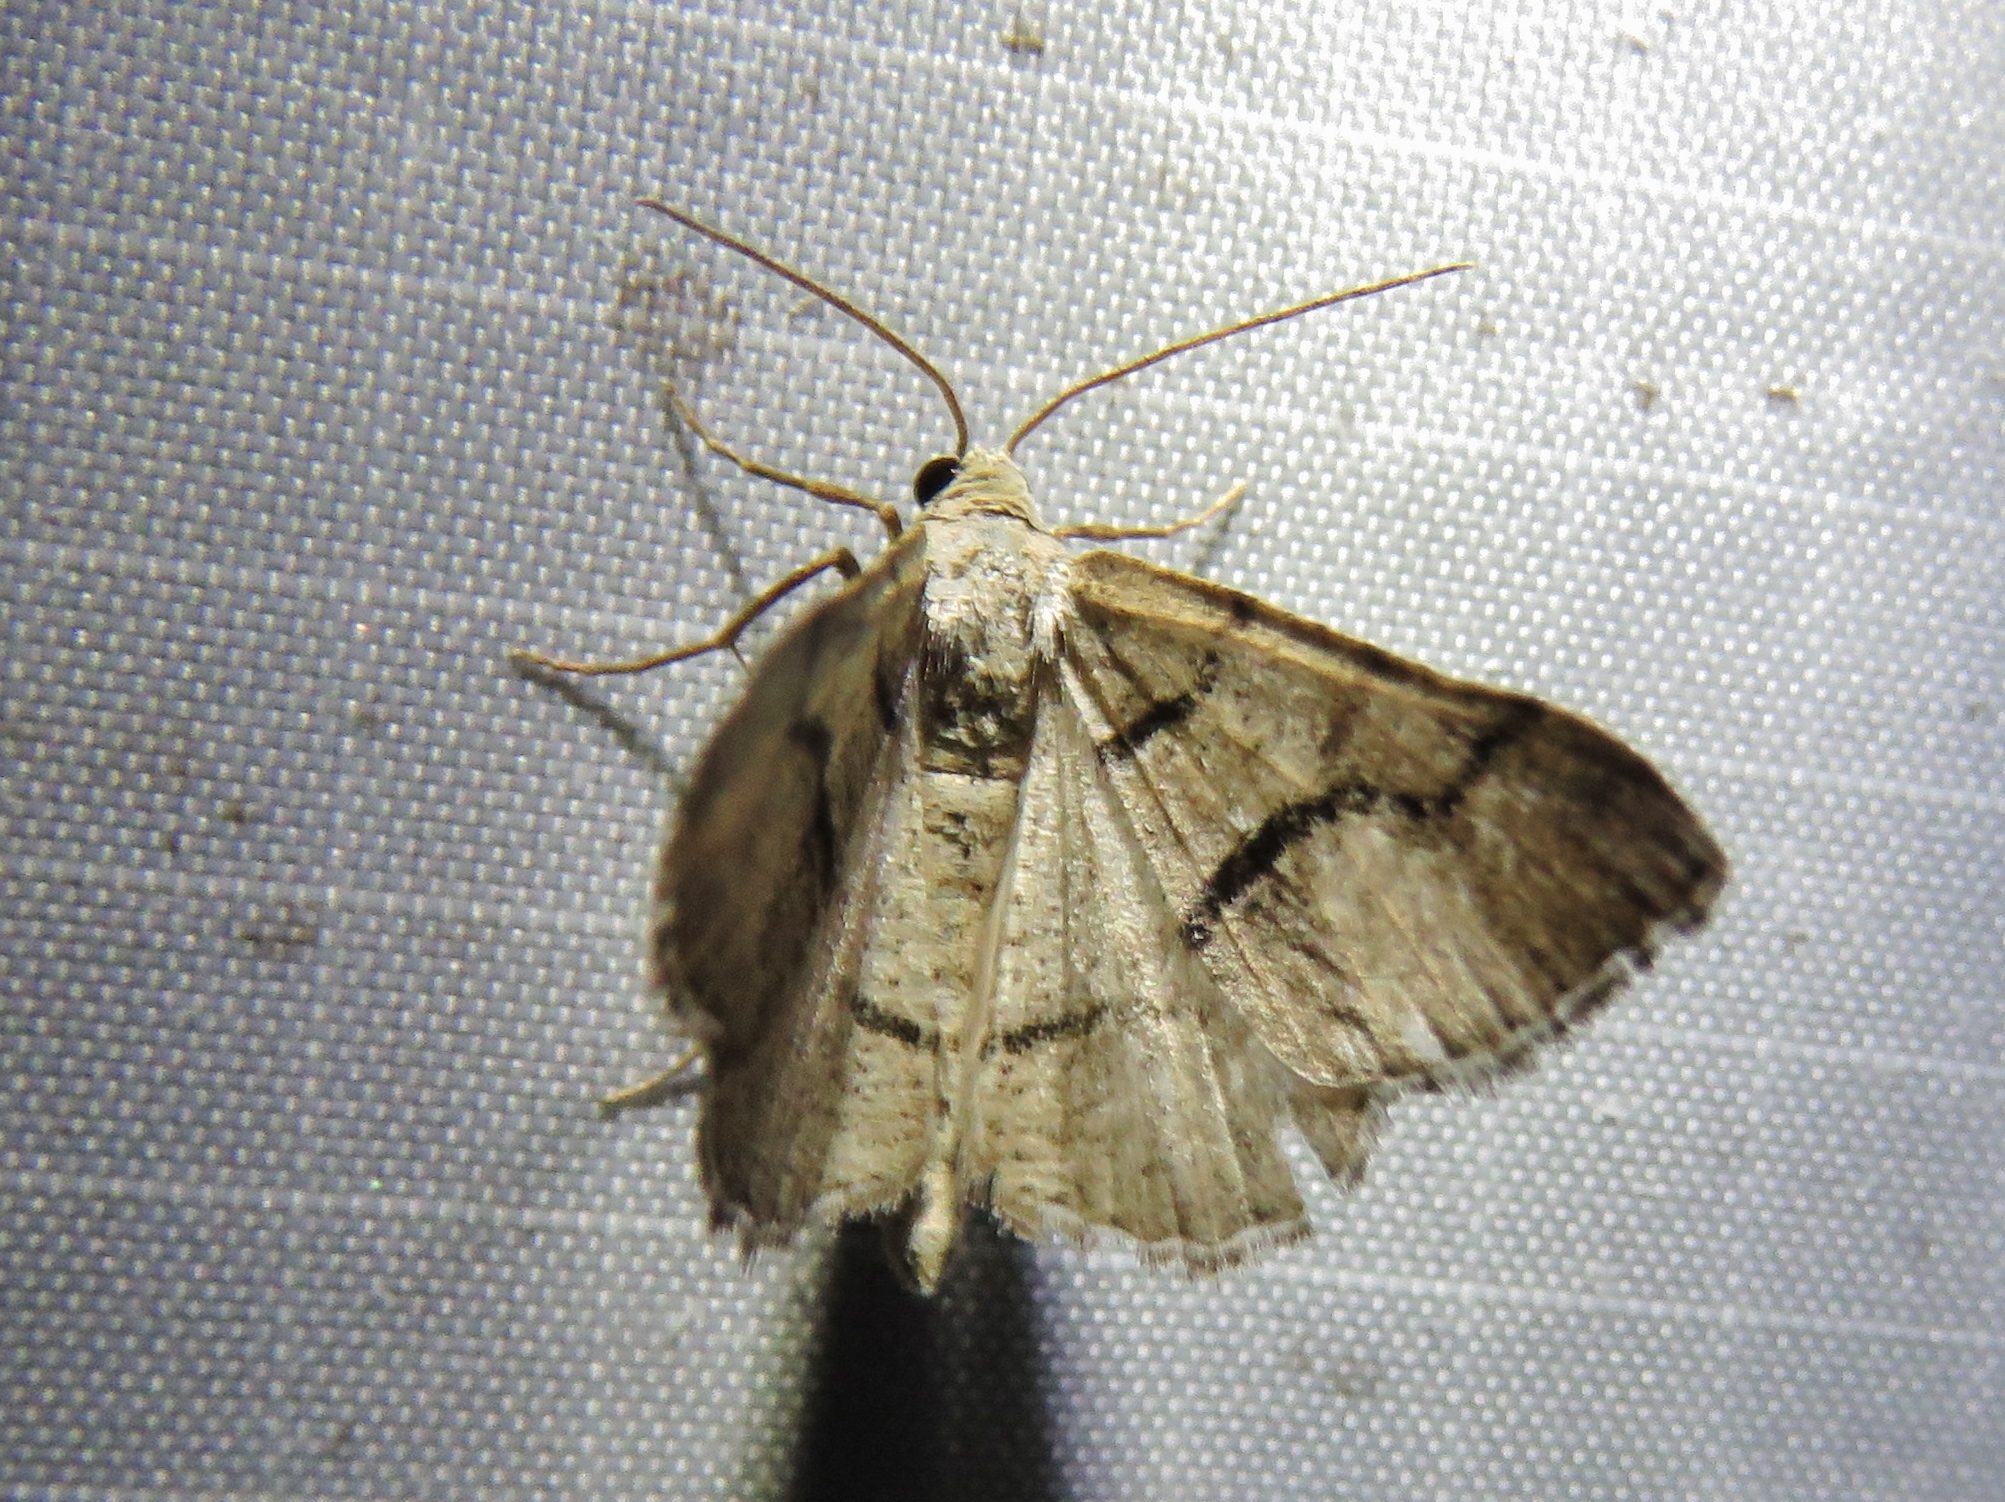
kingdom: Animalia
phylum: Arthropoda
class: Insecta
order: Lepidoptera
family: Geometridae
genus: Digrammia
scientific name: Digrammia continuata
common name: Curve-lined angle
